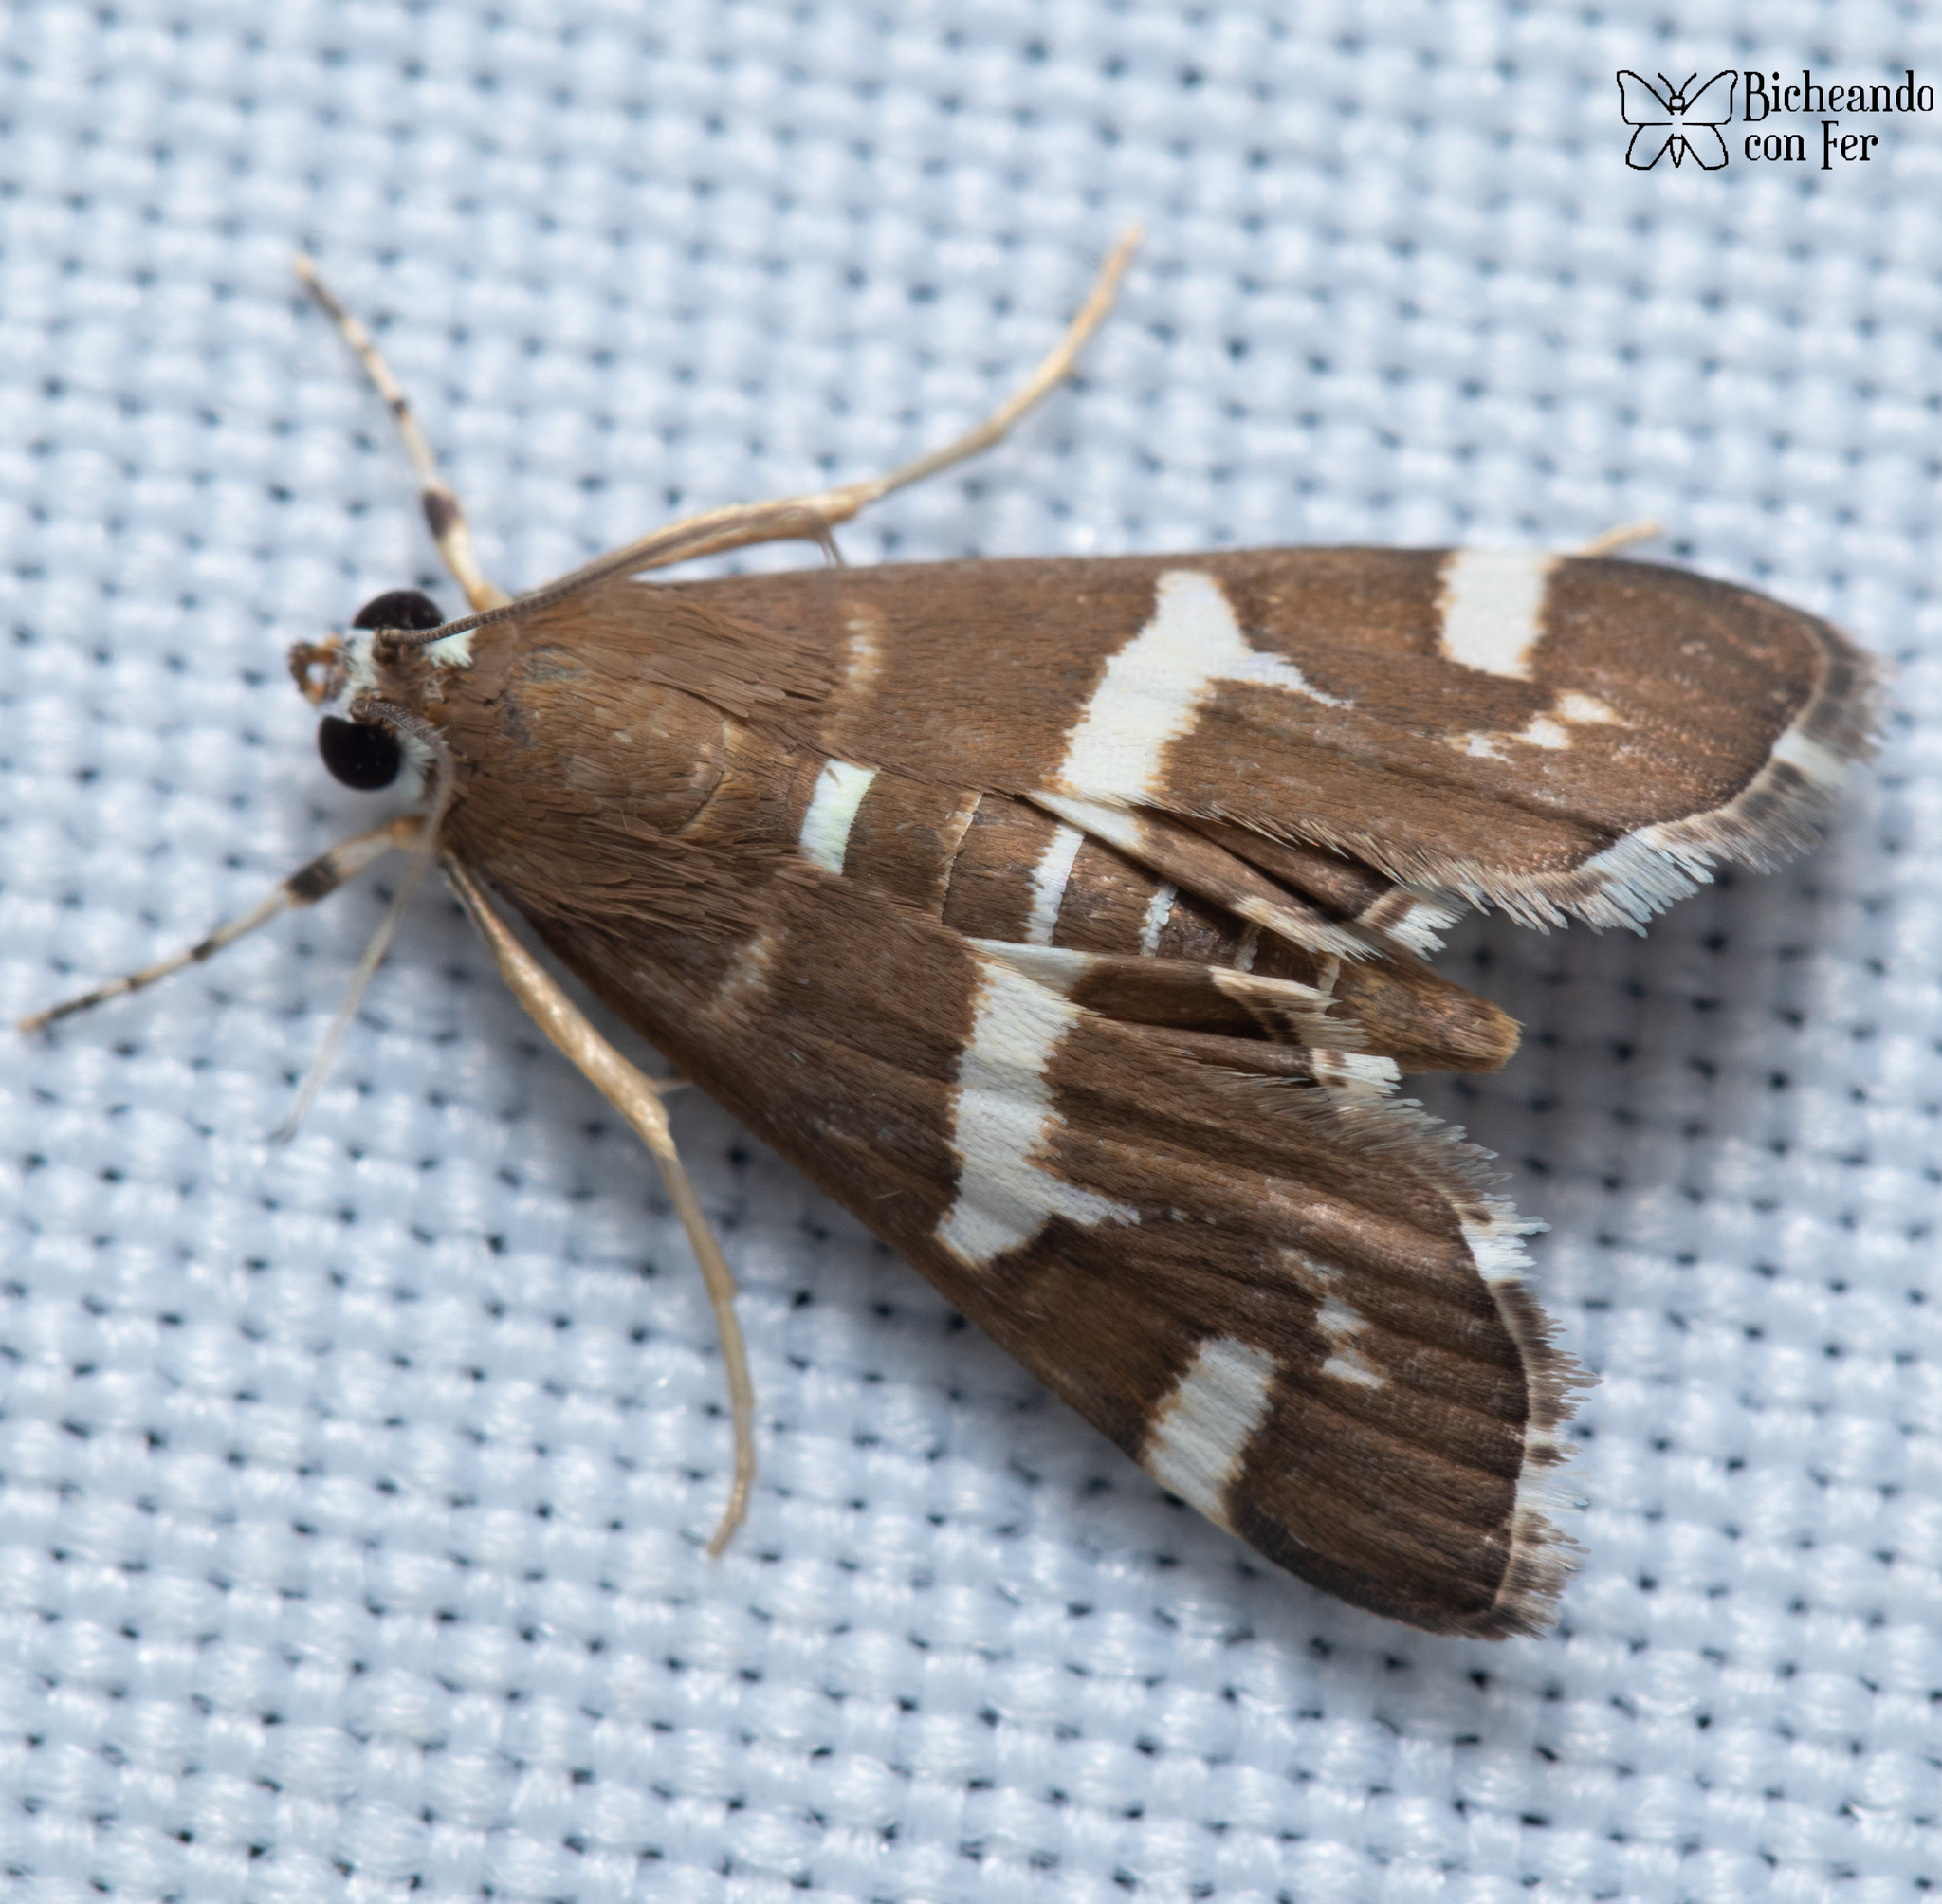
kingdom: Animalia
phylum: Arthropoda
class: Insecta
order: Lepidoptera
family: Crambidae
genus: Spoladea
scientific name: Spoladea recurvalis
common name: Beet webworm moth
